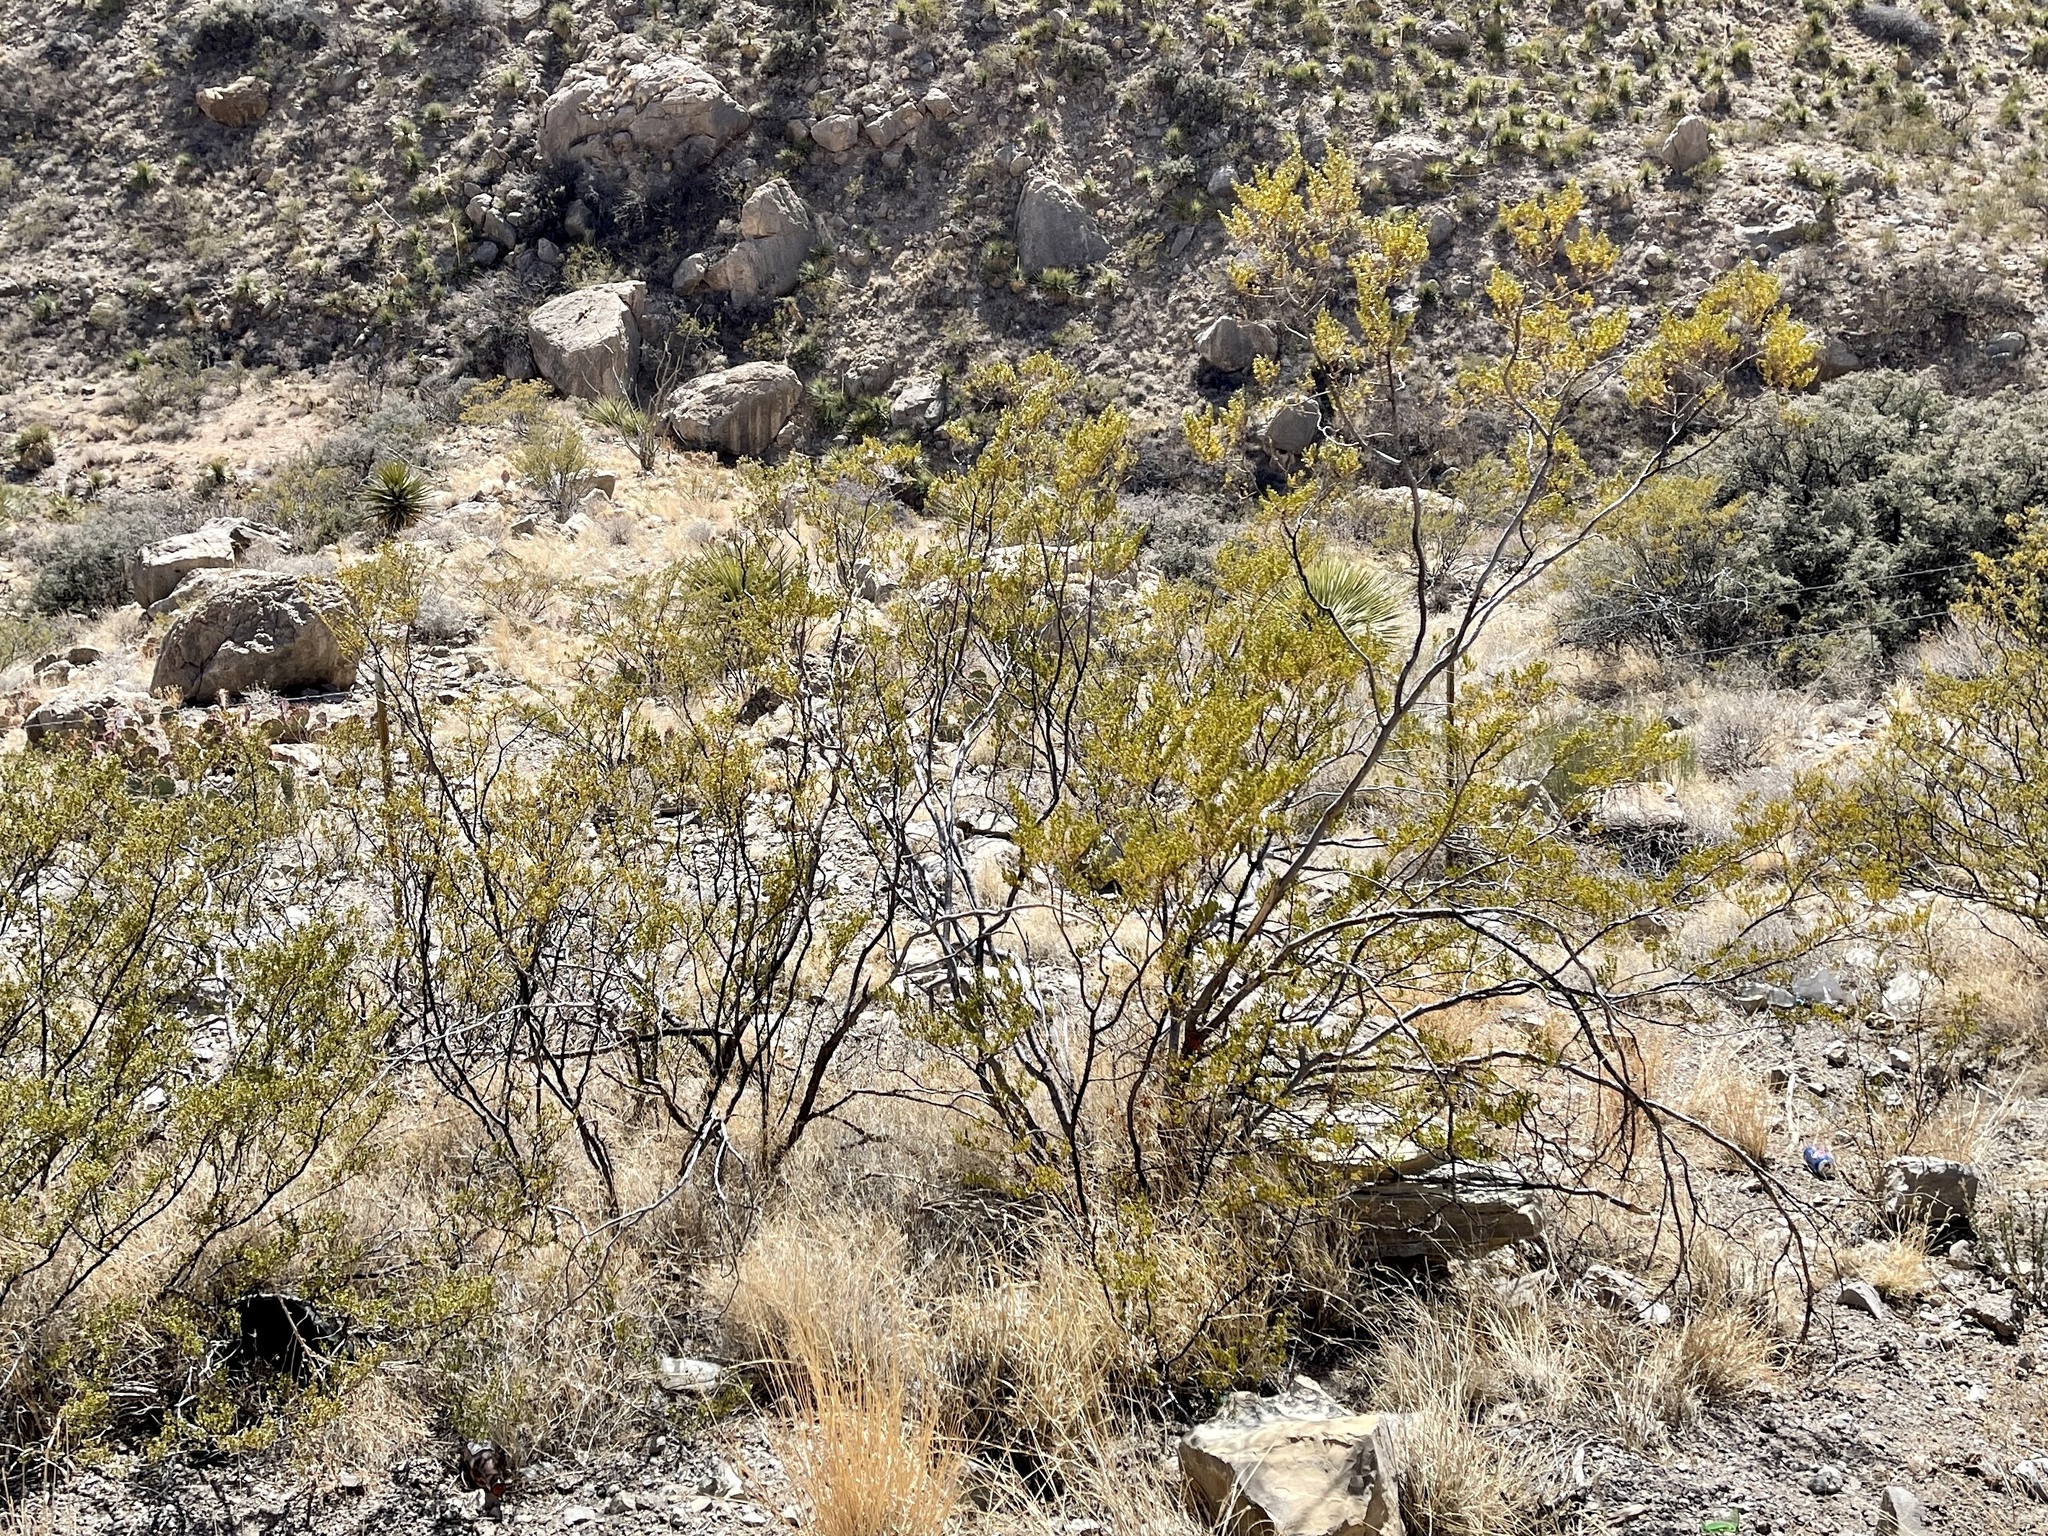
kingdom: Plantae
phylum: Tracheophyta
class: Magnoliopsida
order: Zygophyllales
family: Zygophyllaceae
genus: Larrea
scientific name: Larrea tridentata
